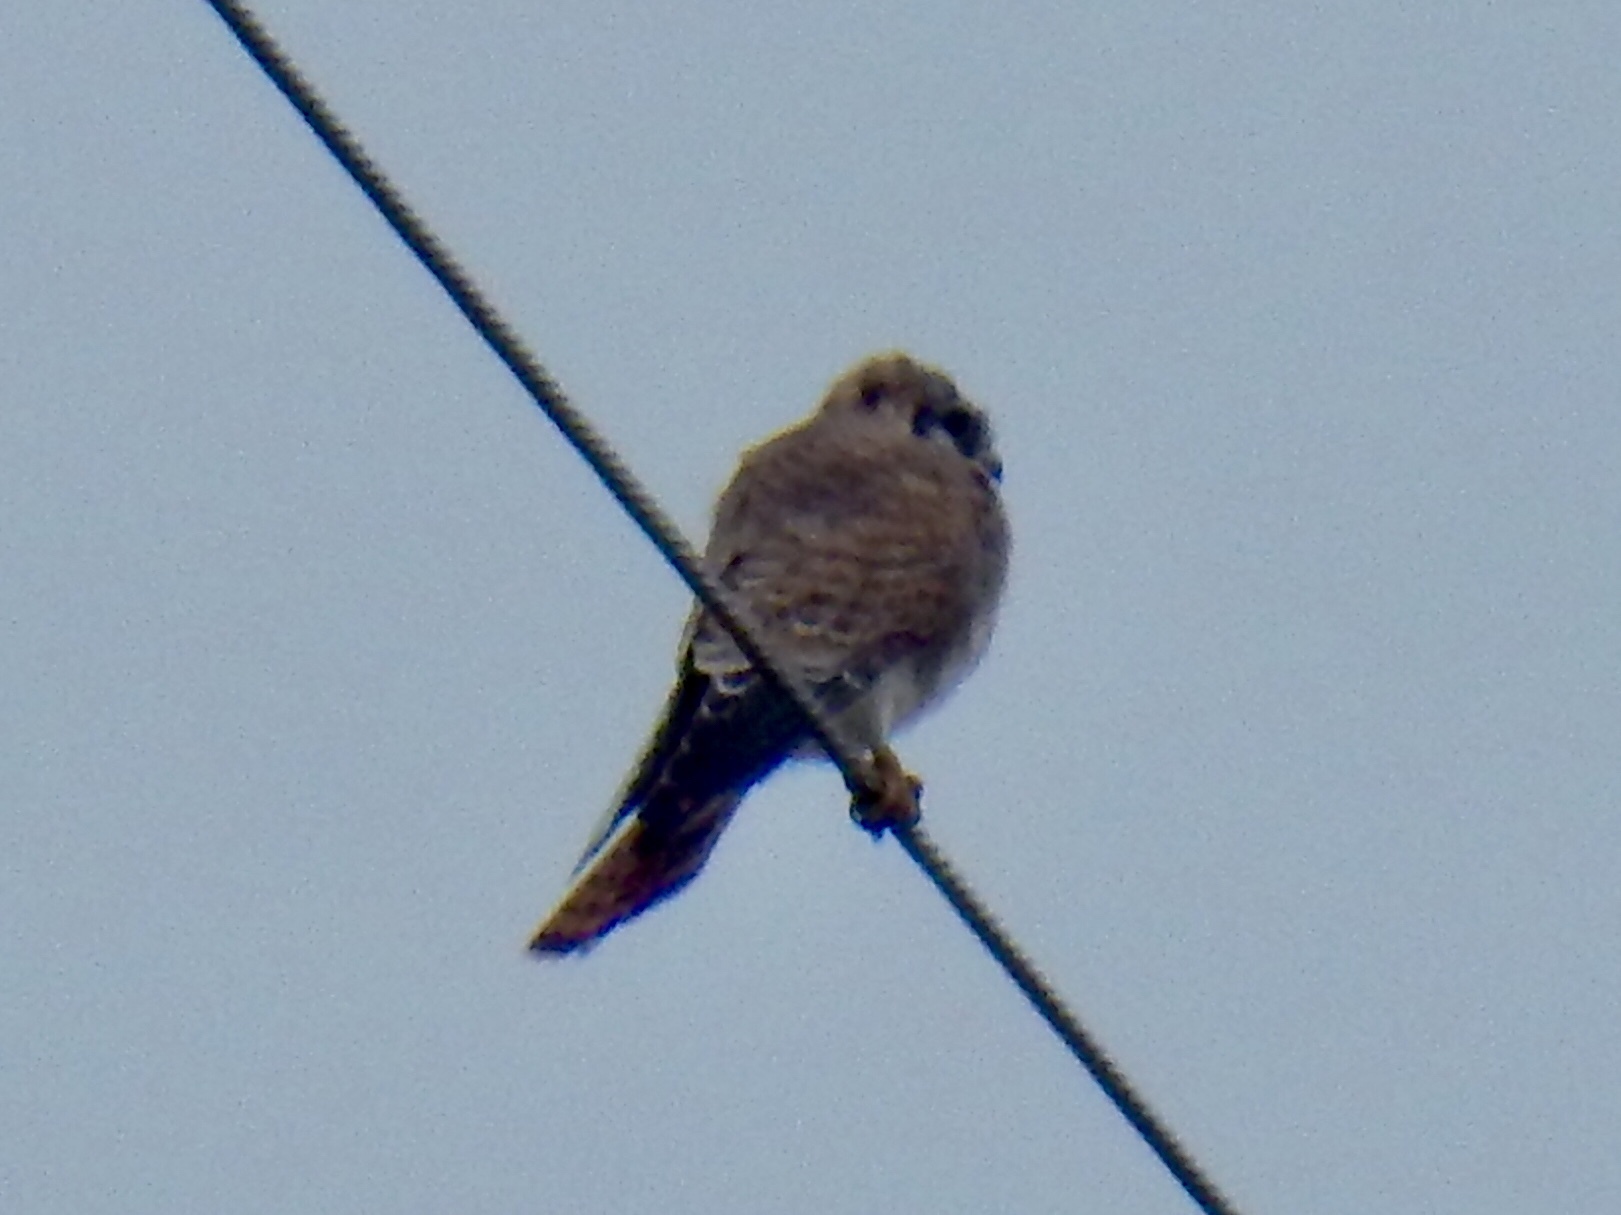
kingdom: Animalia
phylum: Chordata
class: Aves
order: Falconiformes
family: Falconidae
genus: Falco
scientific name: Falco sparverius
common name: American kestrel
